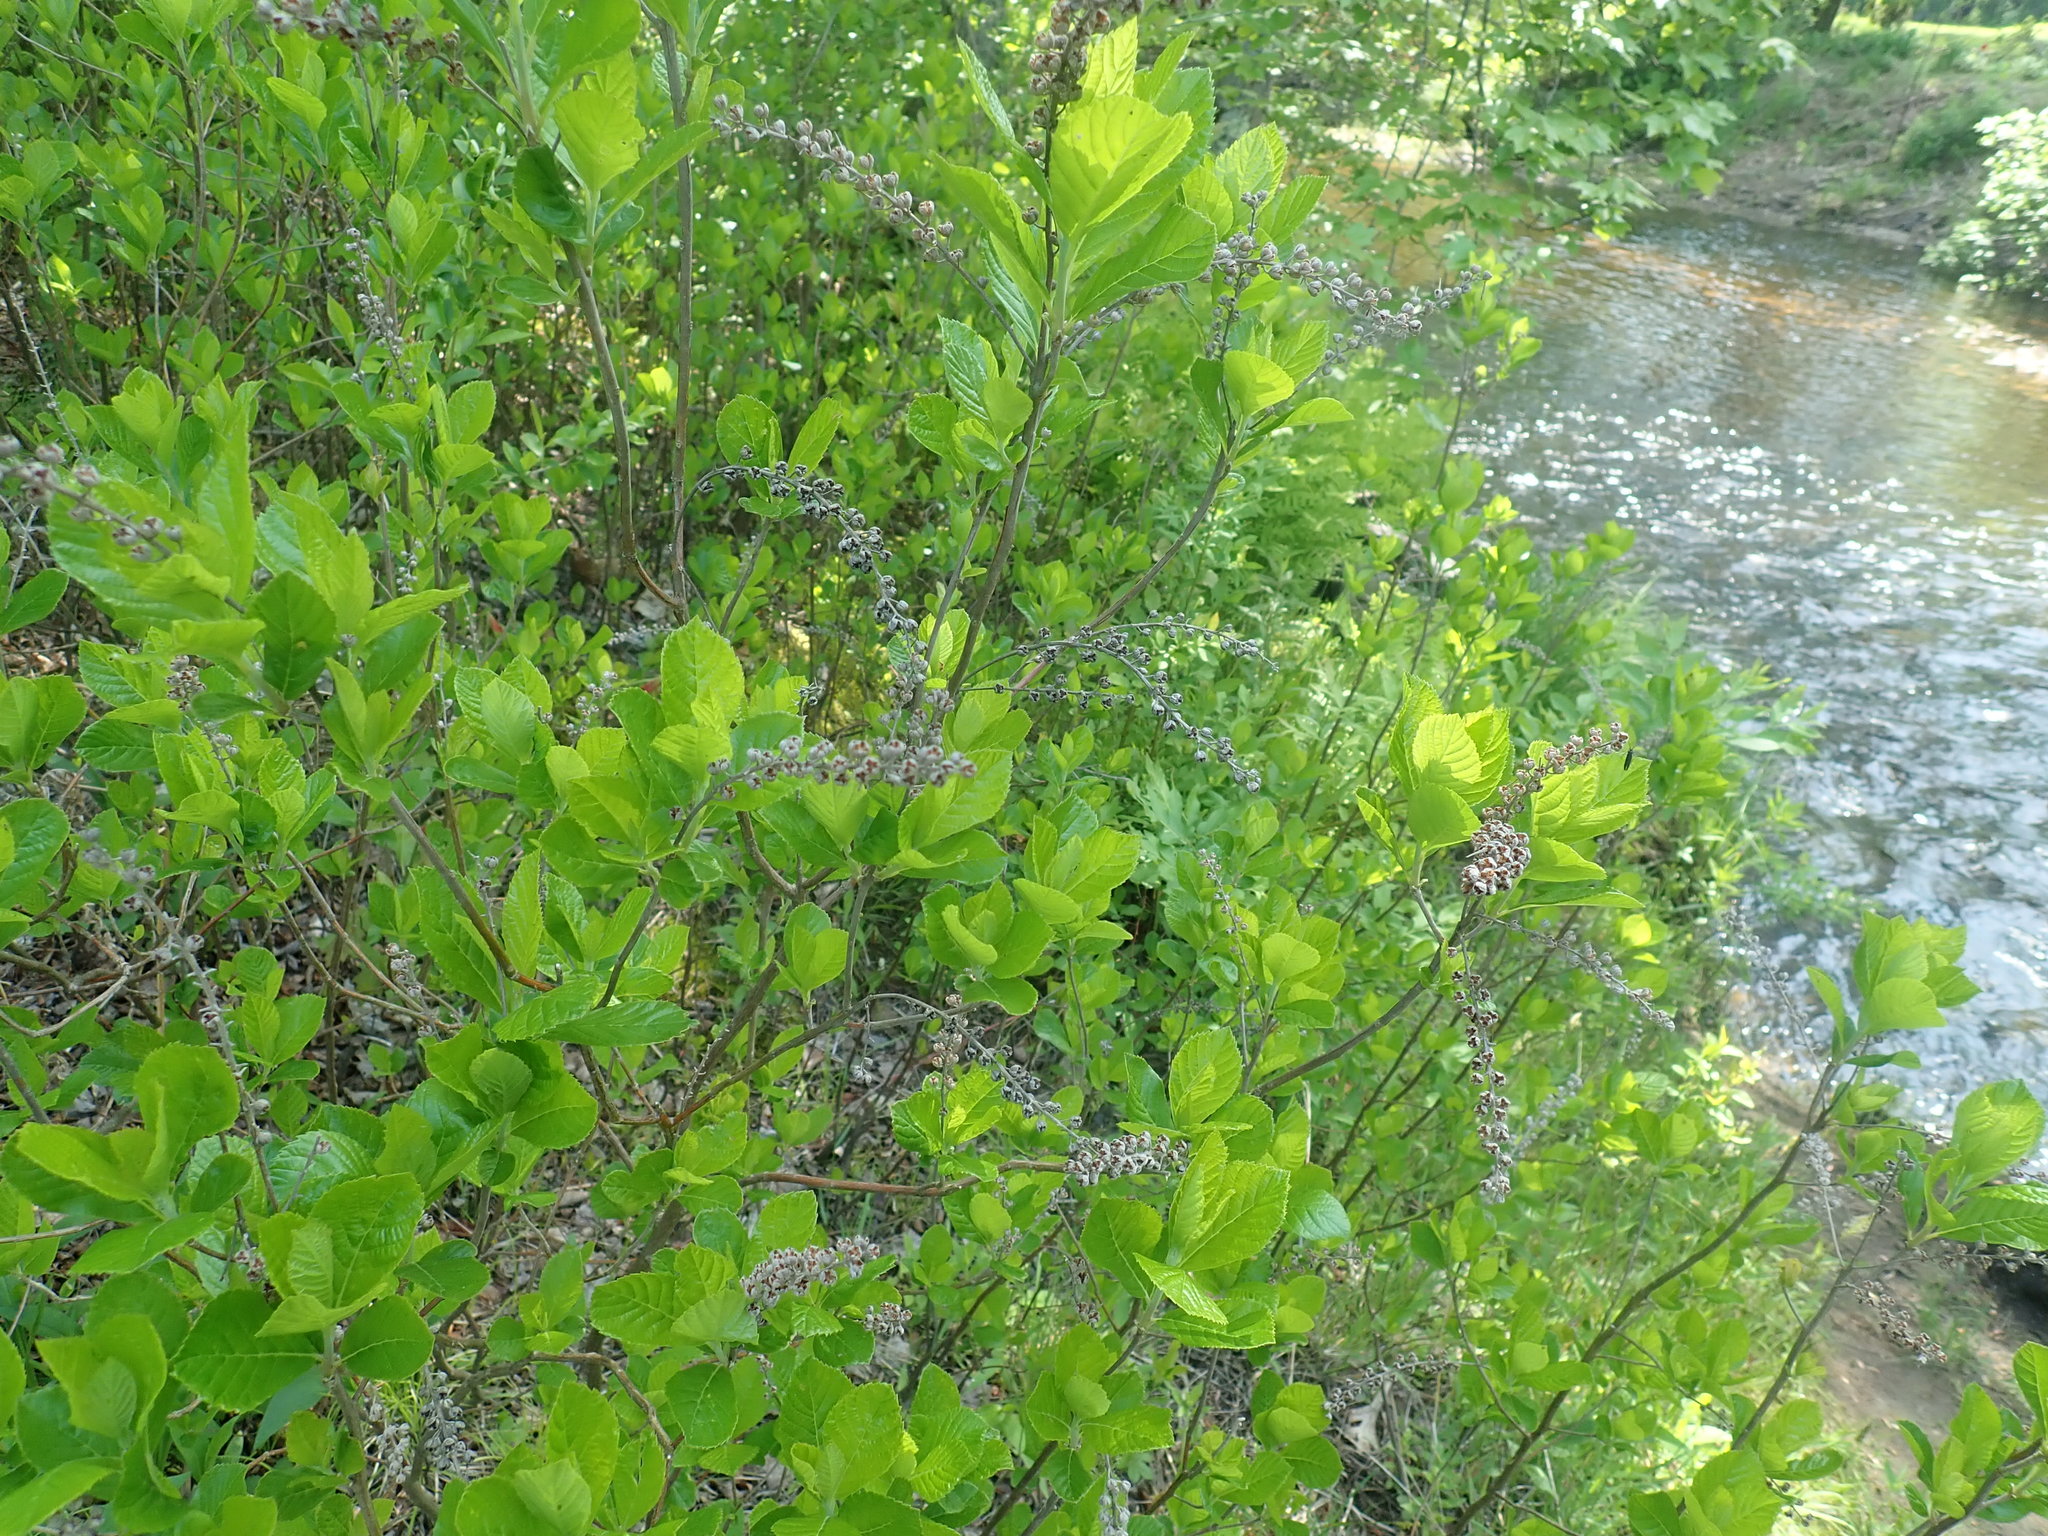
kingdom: Plantae
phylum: Tracheophyta
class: Magnoliopsida
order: Ericales
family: Clethraceae
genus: Clethra
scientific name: Clethra alnifolia
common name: Sweet pepperbush
